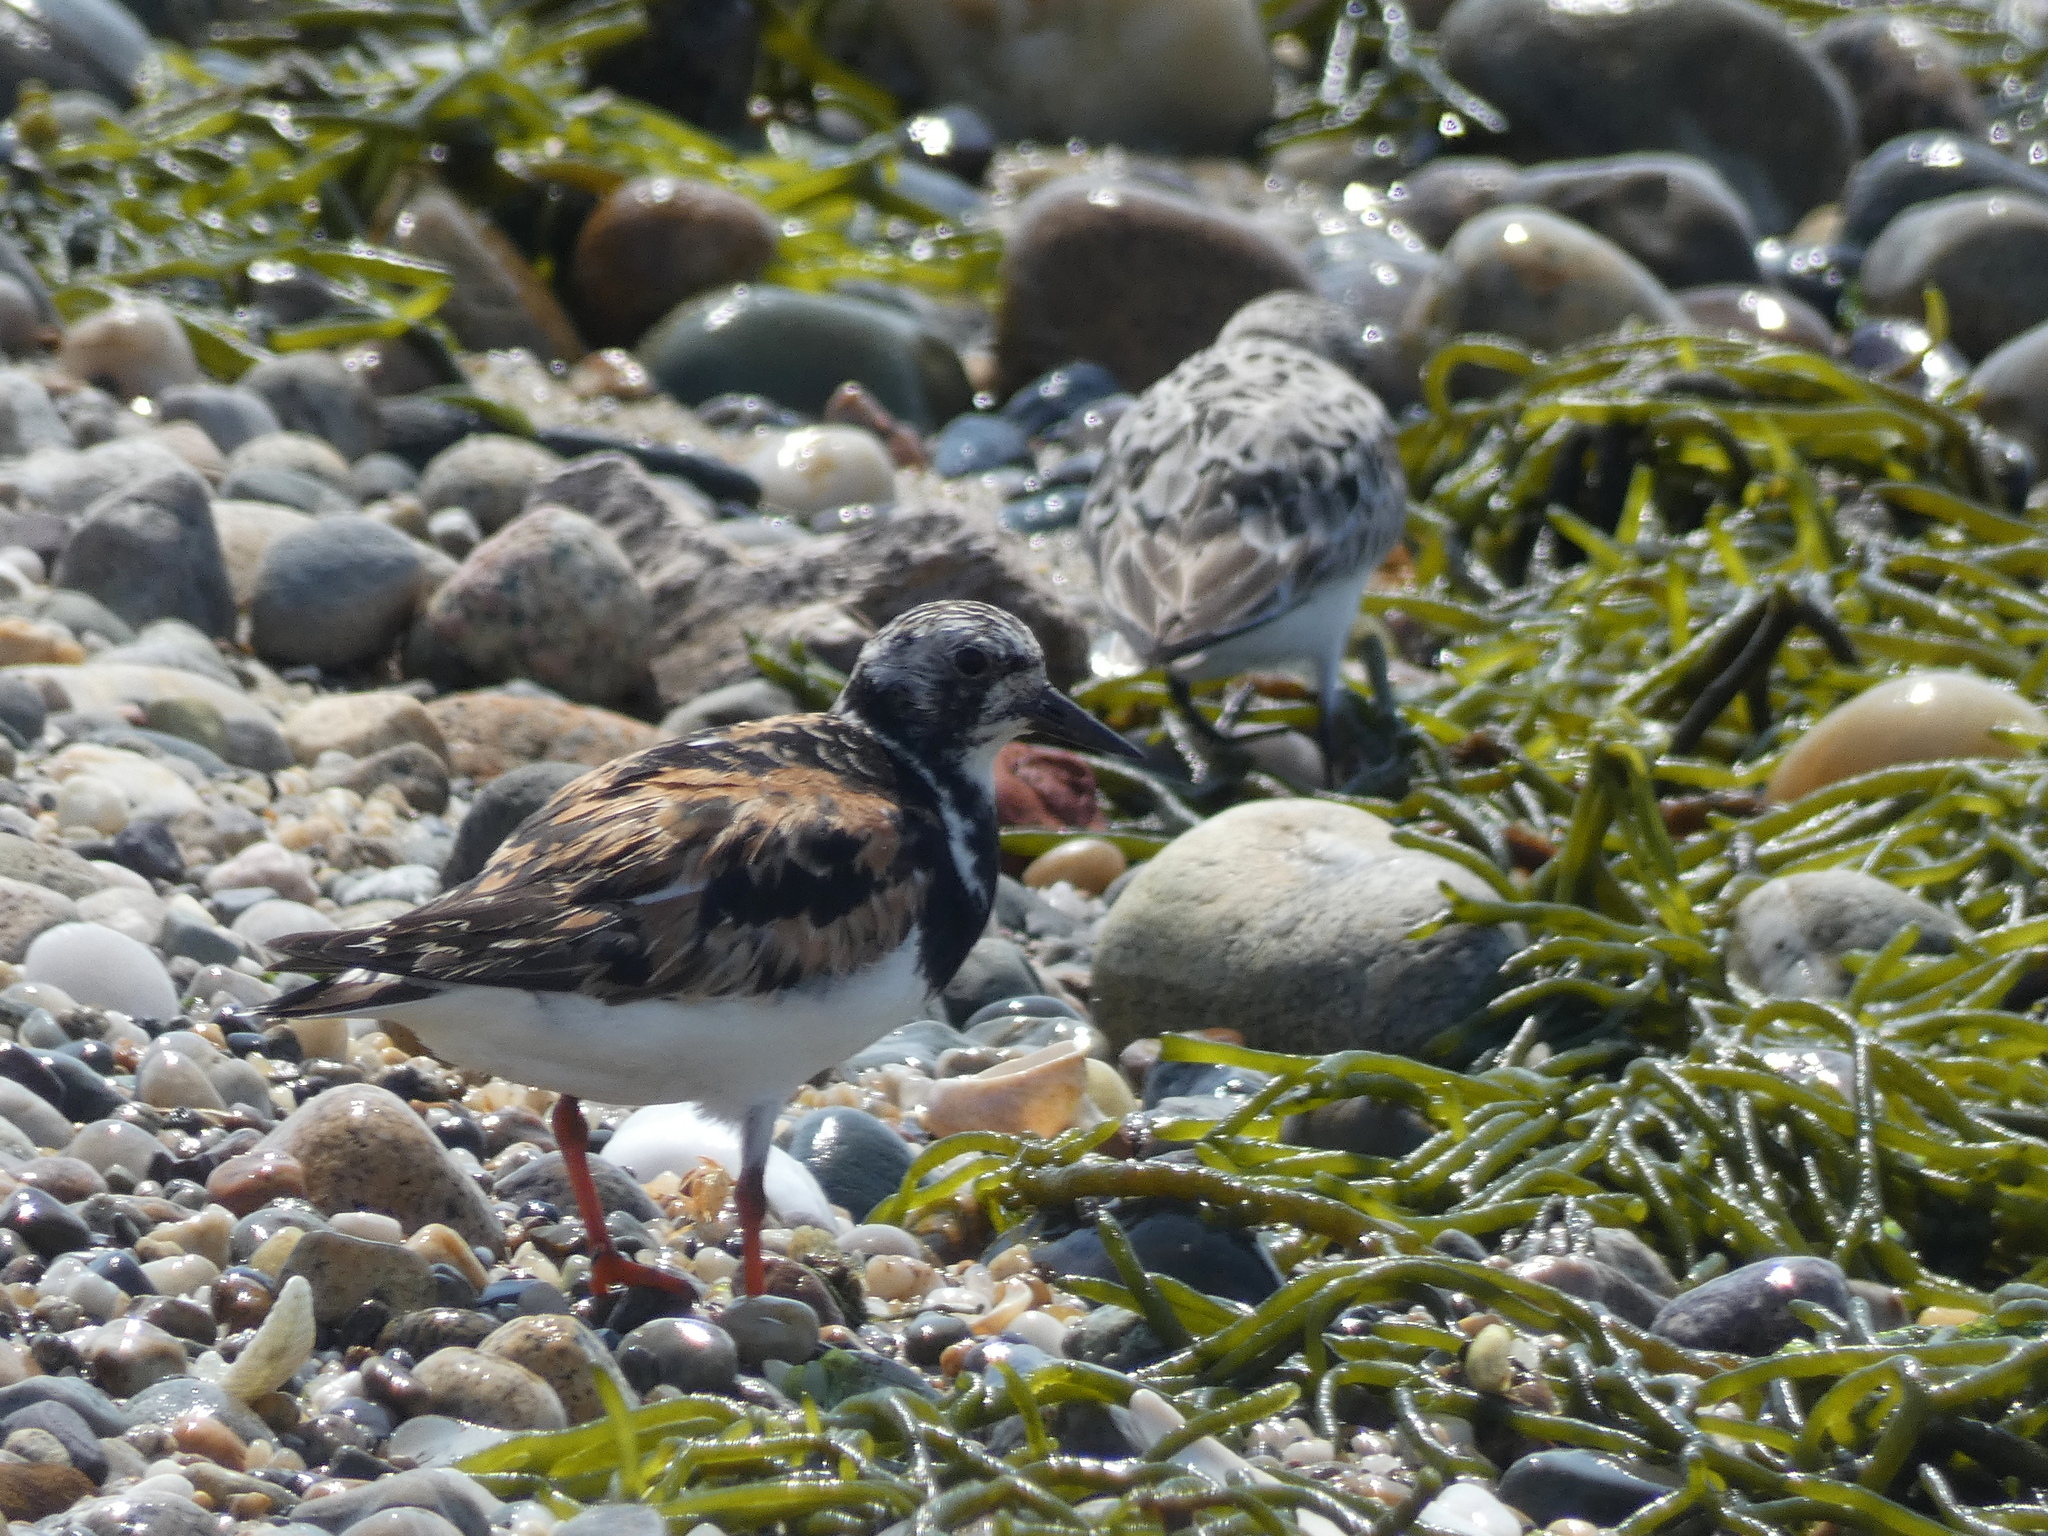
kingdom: Animalia
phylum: Chordata
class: Aves
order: Charadriiformes
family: Scolopacidae
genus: Arenaria
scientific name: Arenaria interpres
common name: Ruddy turnstone
